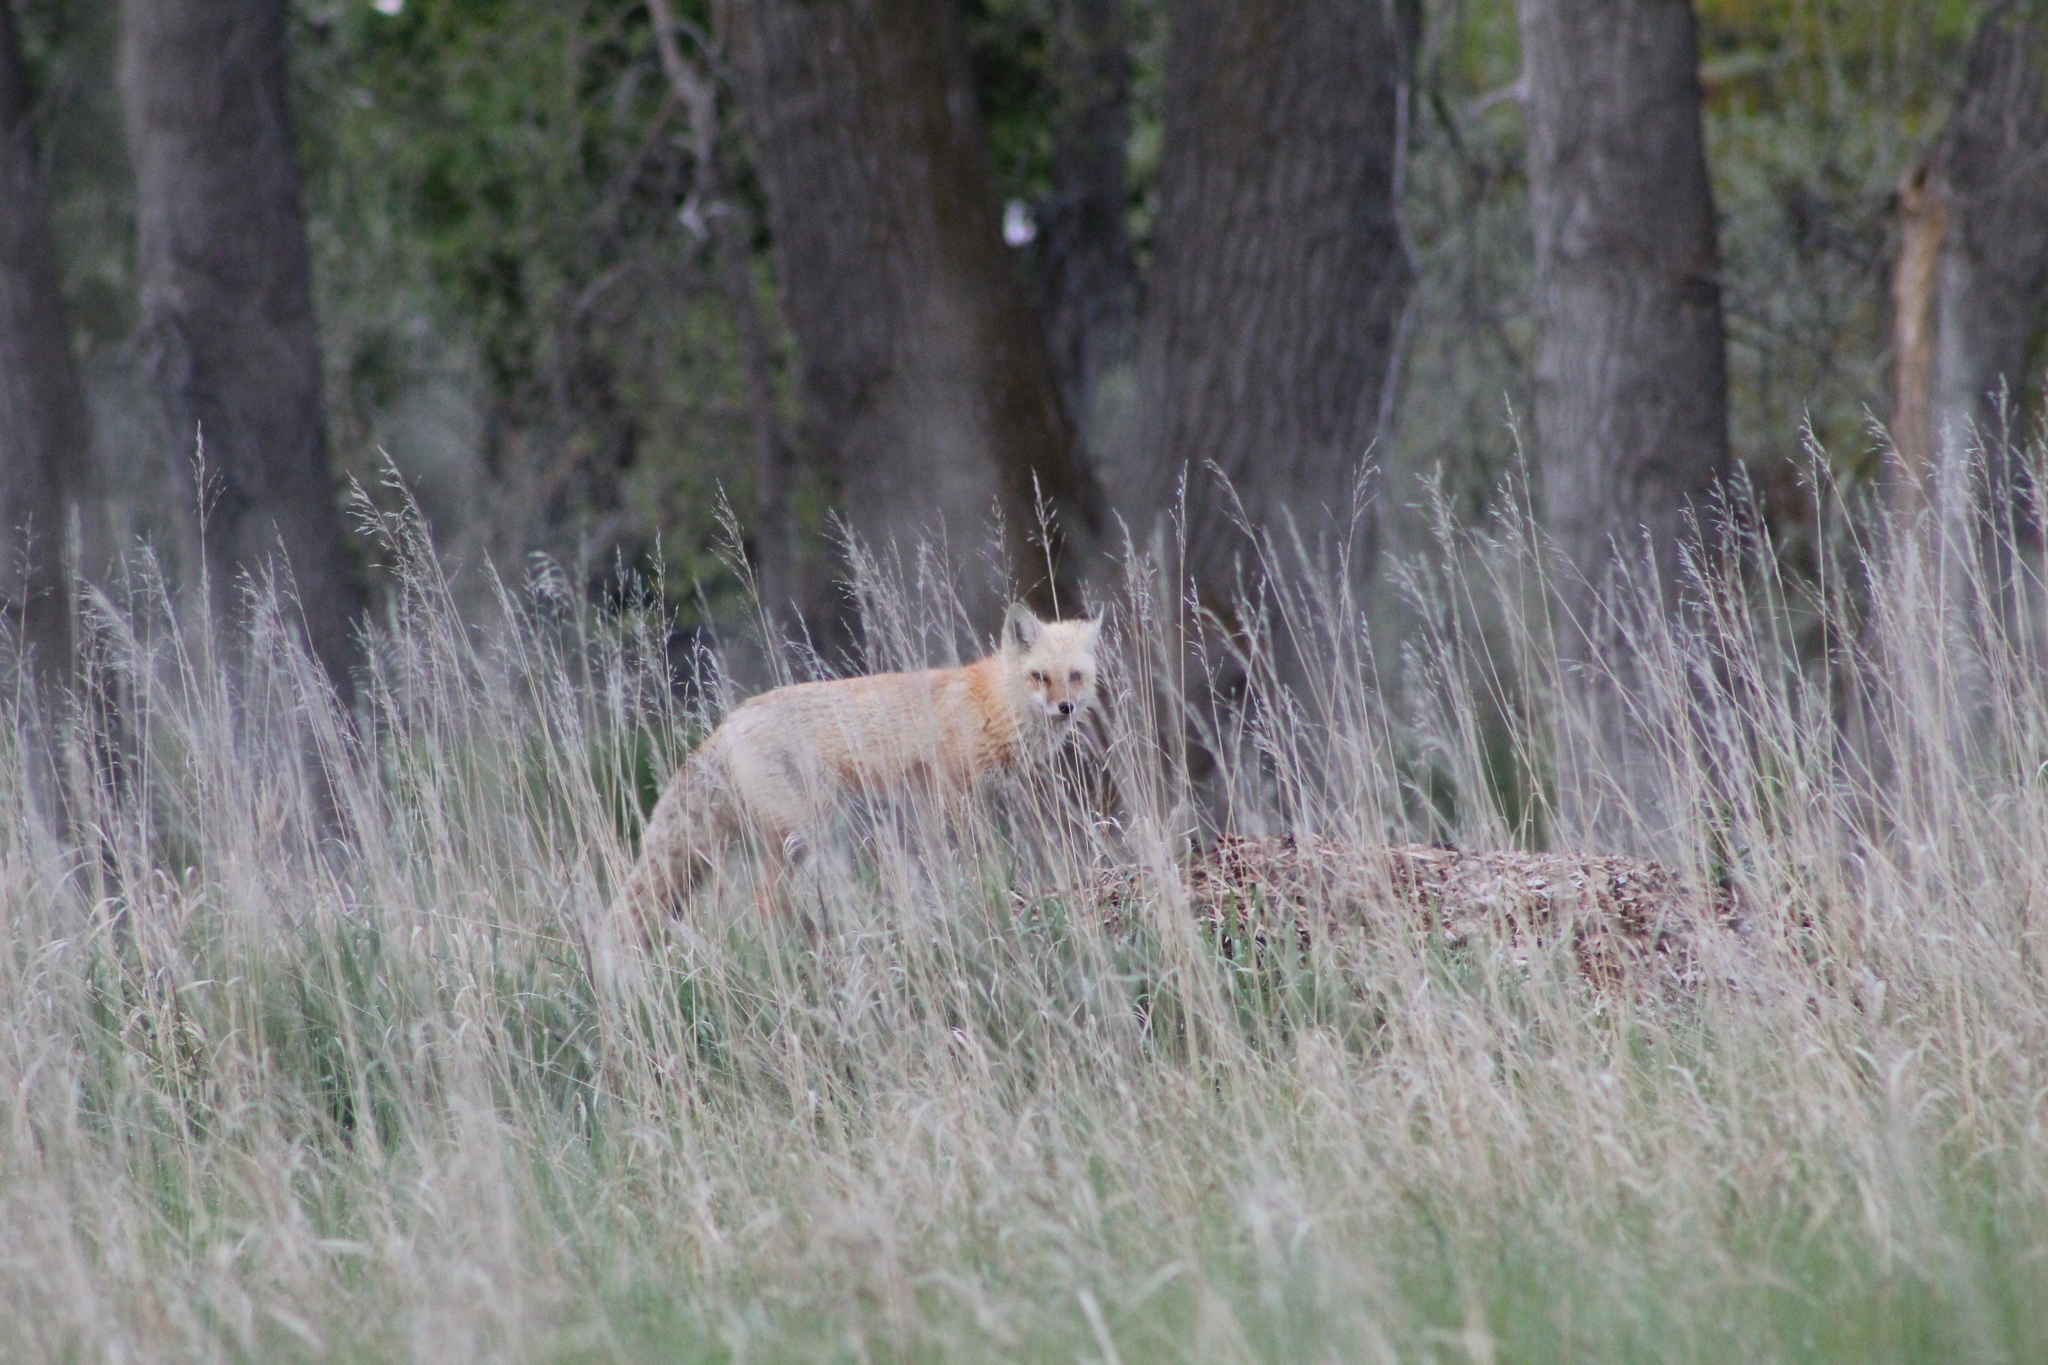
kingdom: Animalia
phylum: Chordata
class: Mammalia
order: Carnivora
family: Canidae
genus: Vulpes
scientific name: Vulpes vulpes
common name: Red fox
